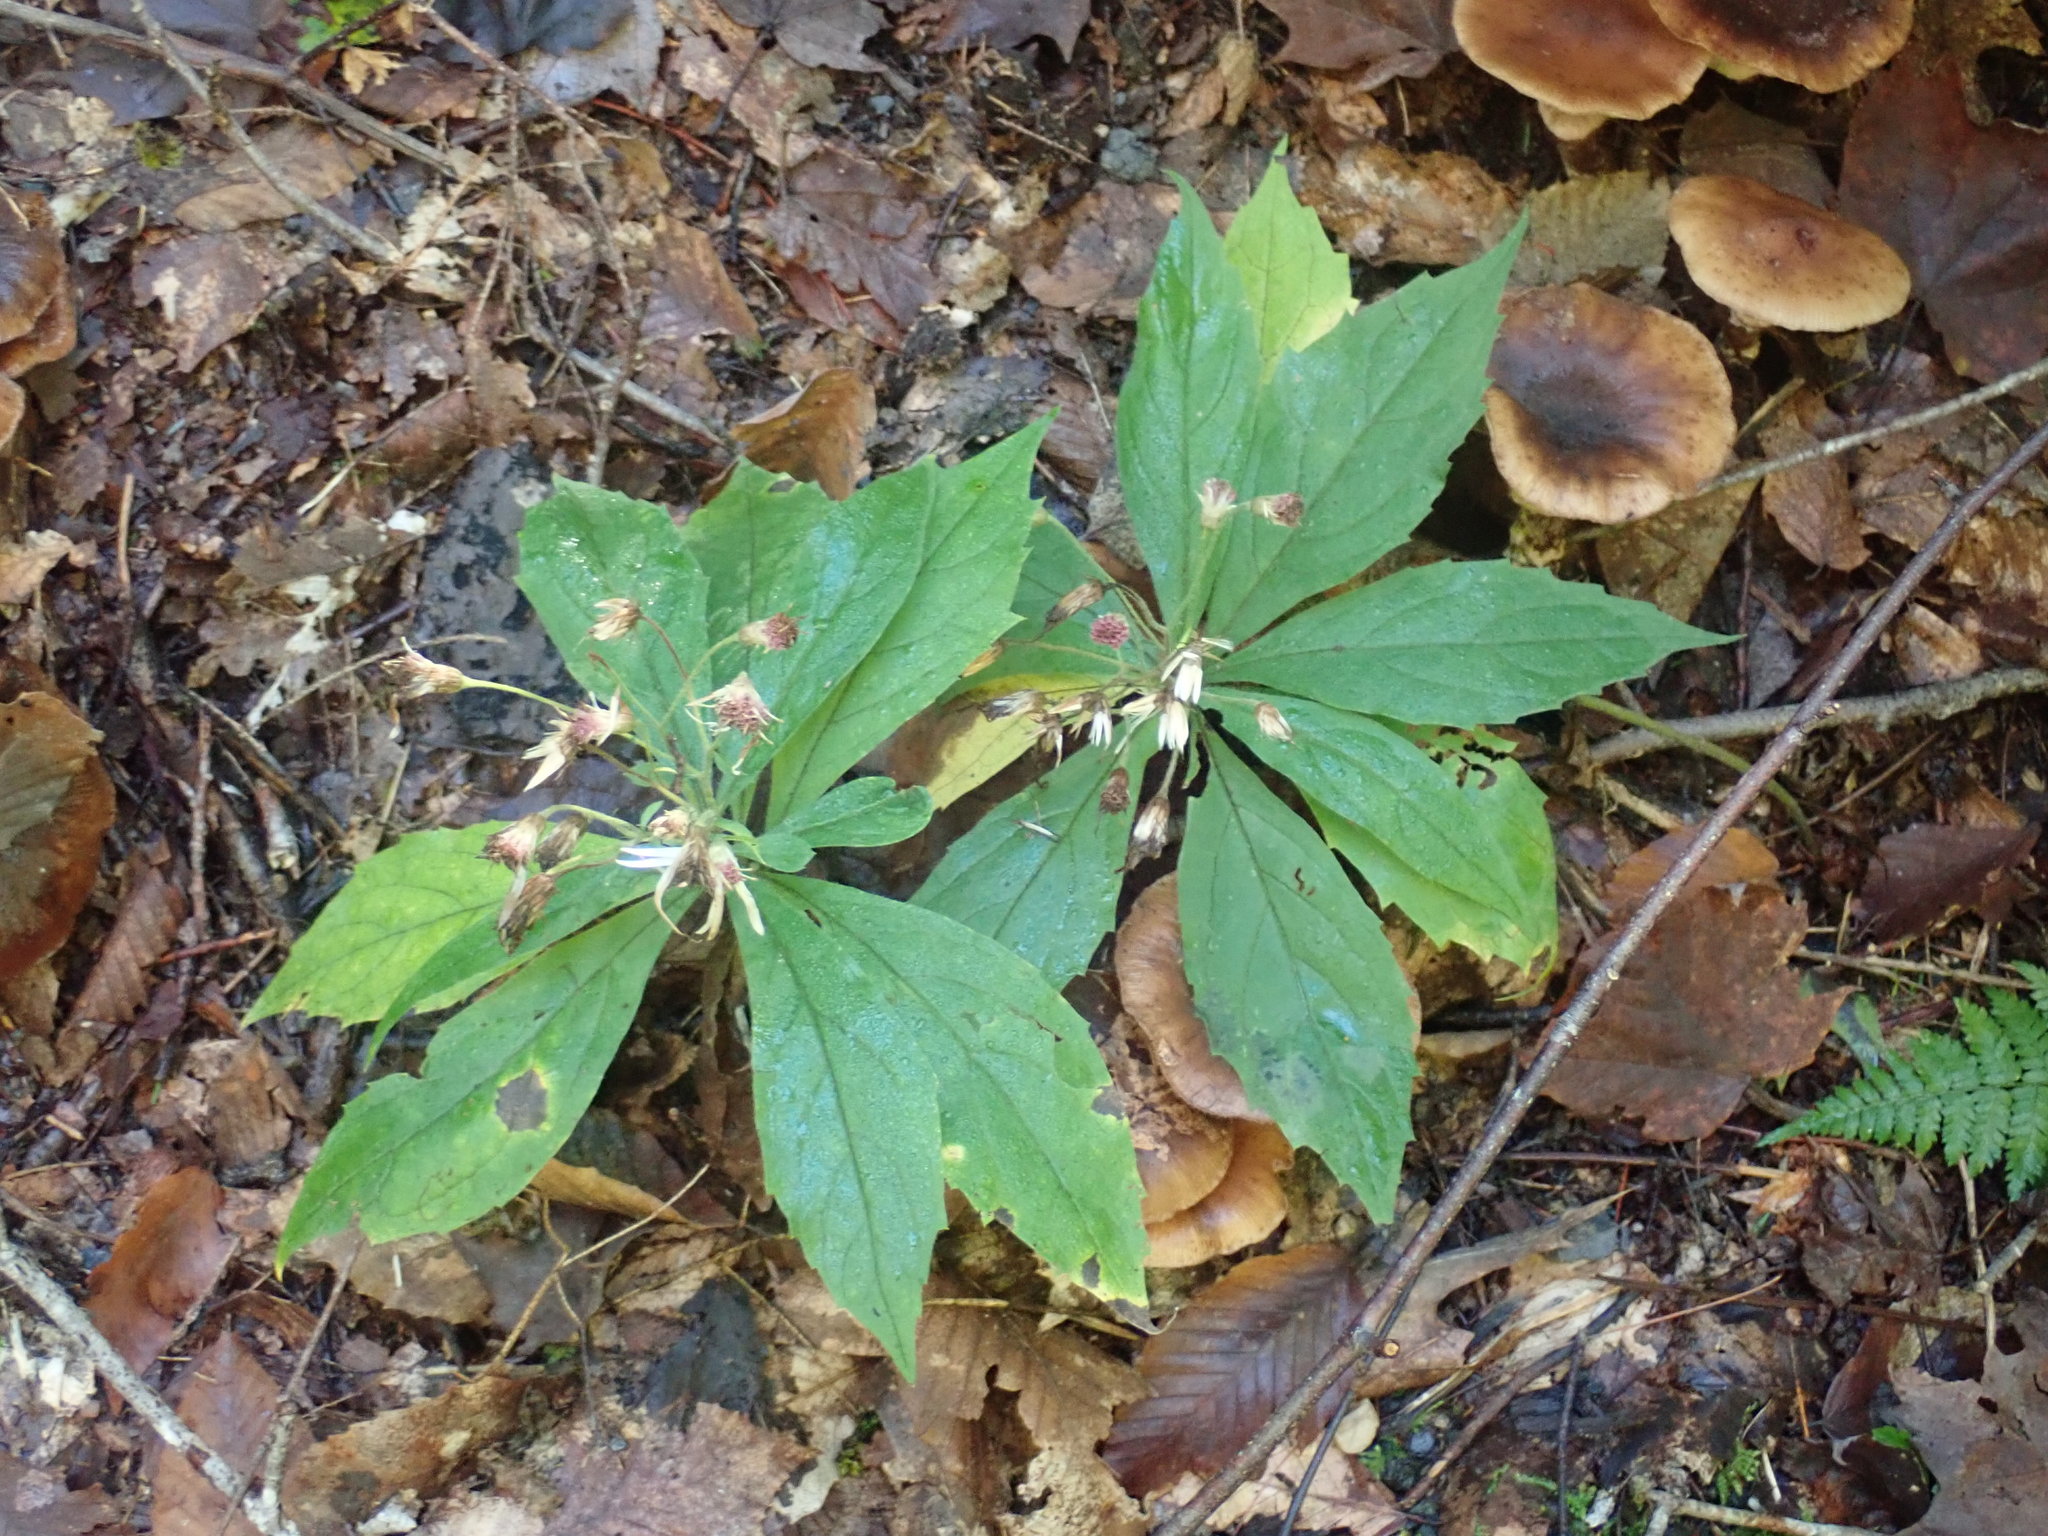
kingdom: Plantae
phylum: Tracheophyta
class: Magnoliopsida
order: Asterales
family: Asteraceae
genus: Oclemena
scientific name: Oclemena acuminata
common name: Mountain aster
